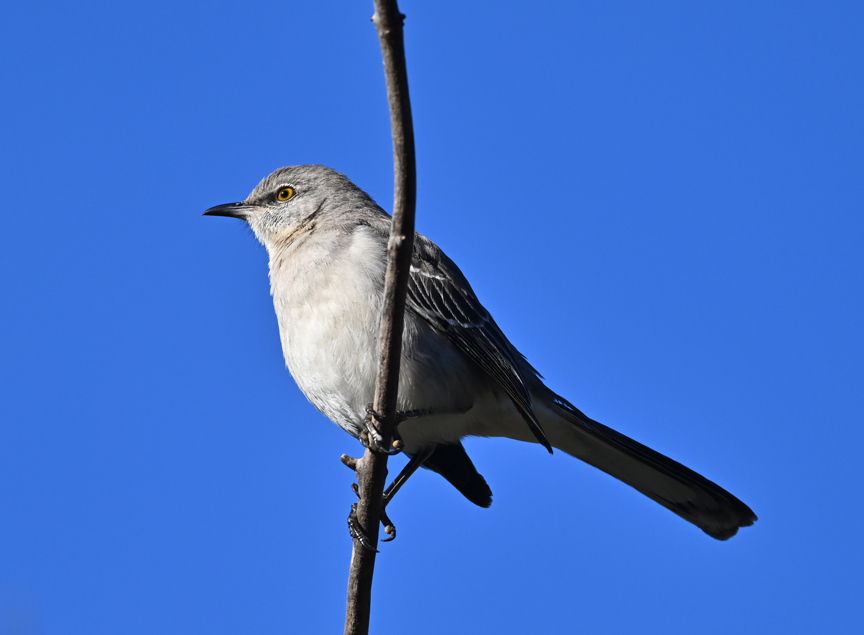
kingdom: Animalia
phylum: Chordata
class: Aves
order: Passeriformes
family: Mimidae
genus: Mimus
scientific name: Mimus polyglottos
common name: Northern mockingbird
